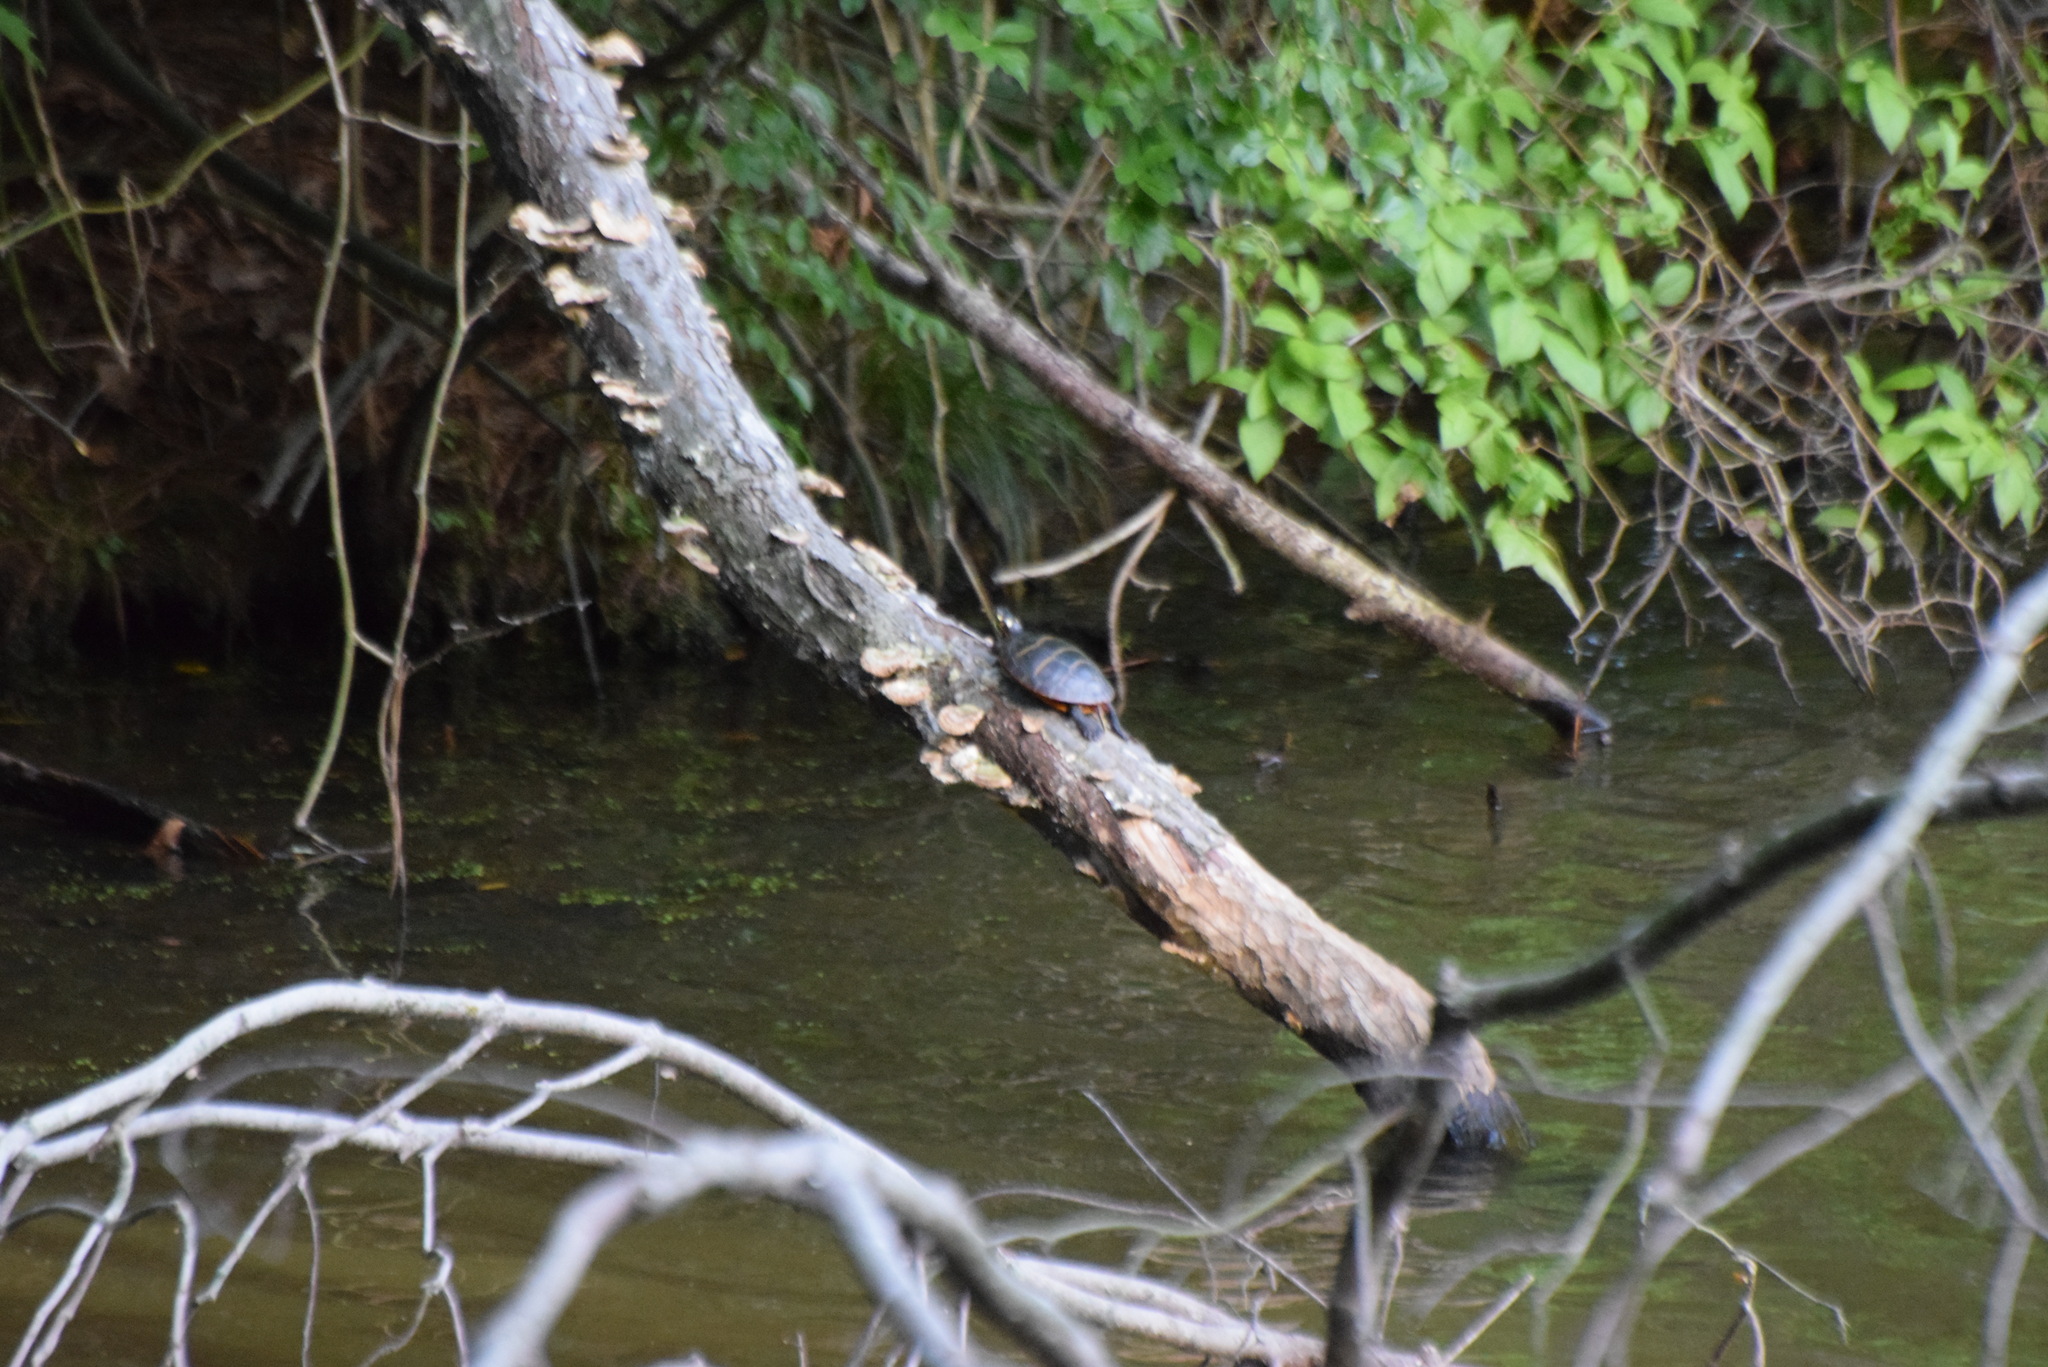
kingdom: Animalia
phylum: Chordata
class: Testudines
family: Emydidae
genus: Chrysemys
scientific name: Chrysemys picta
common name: Painted turtle
